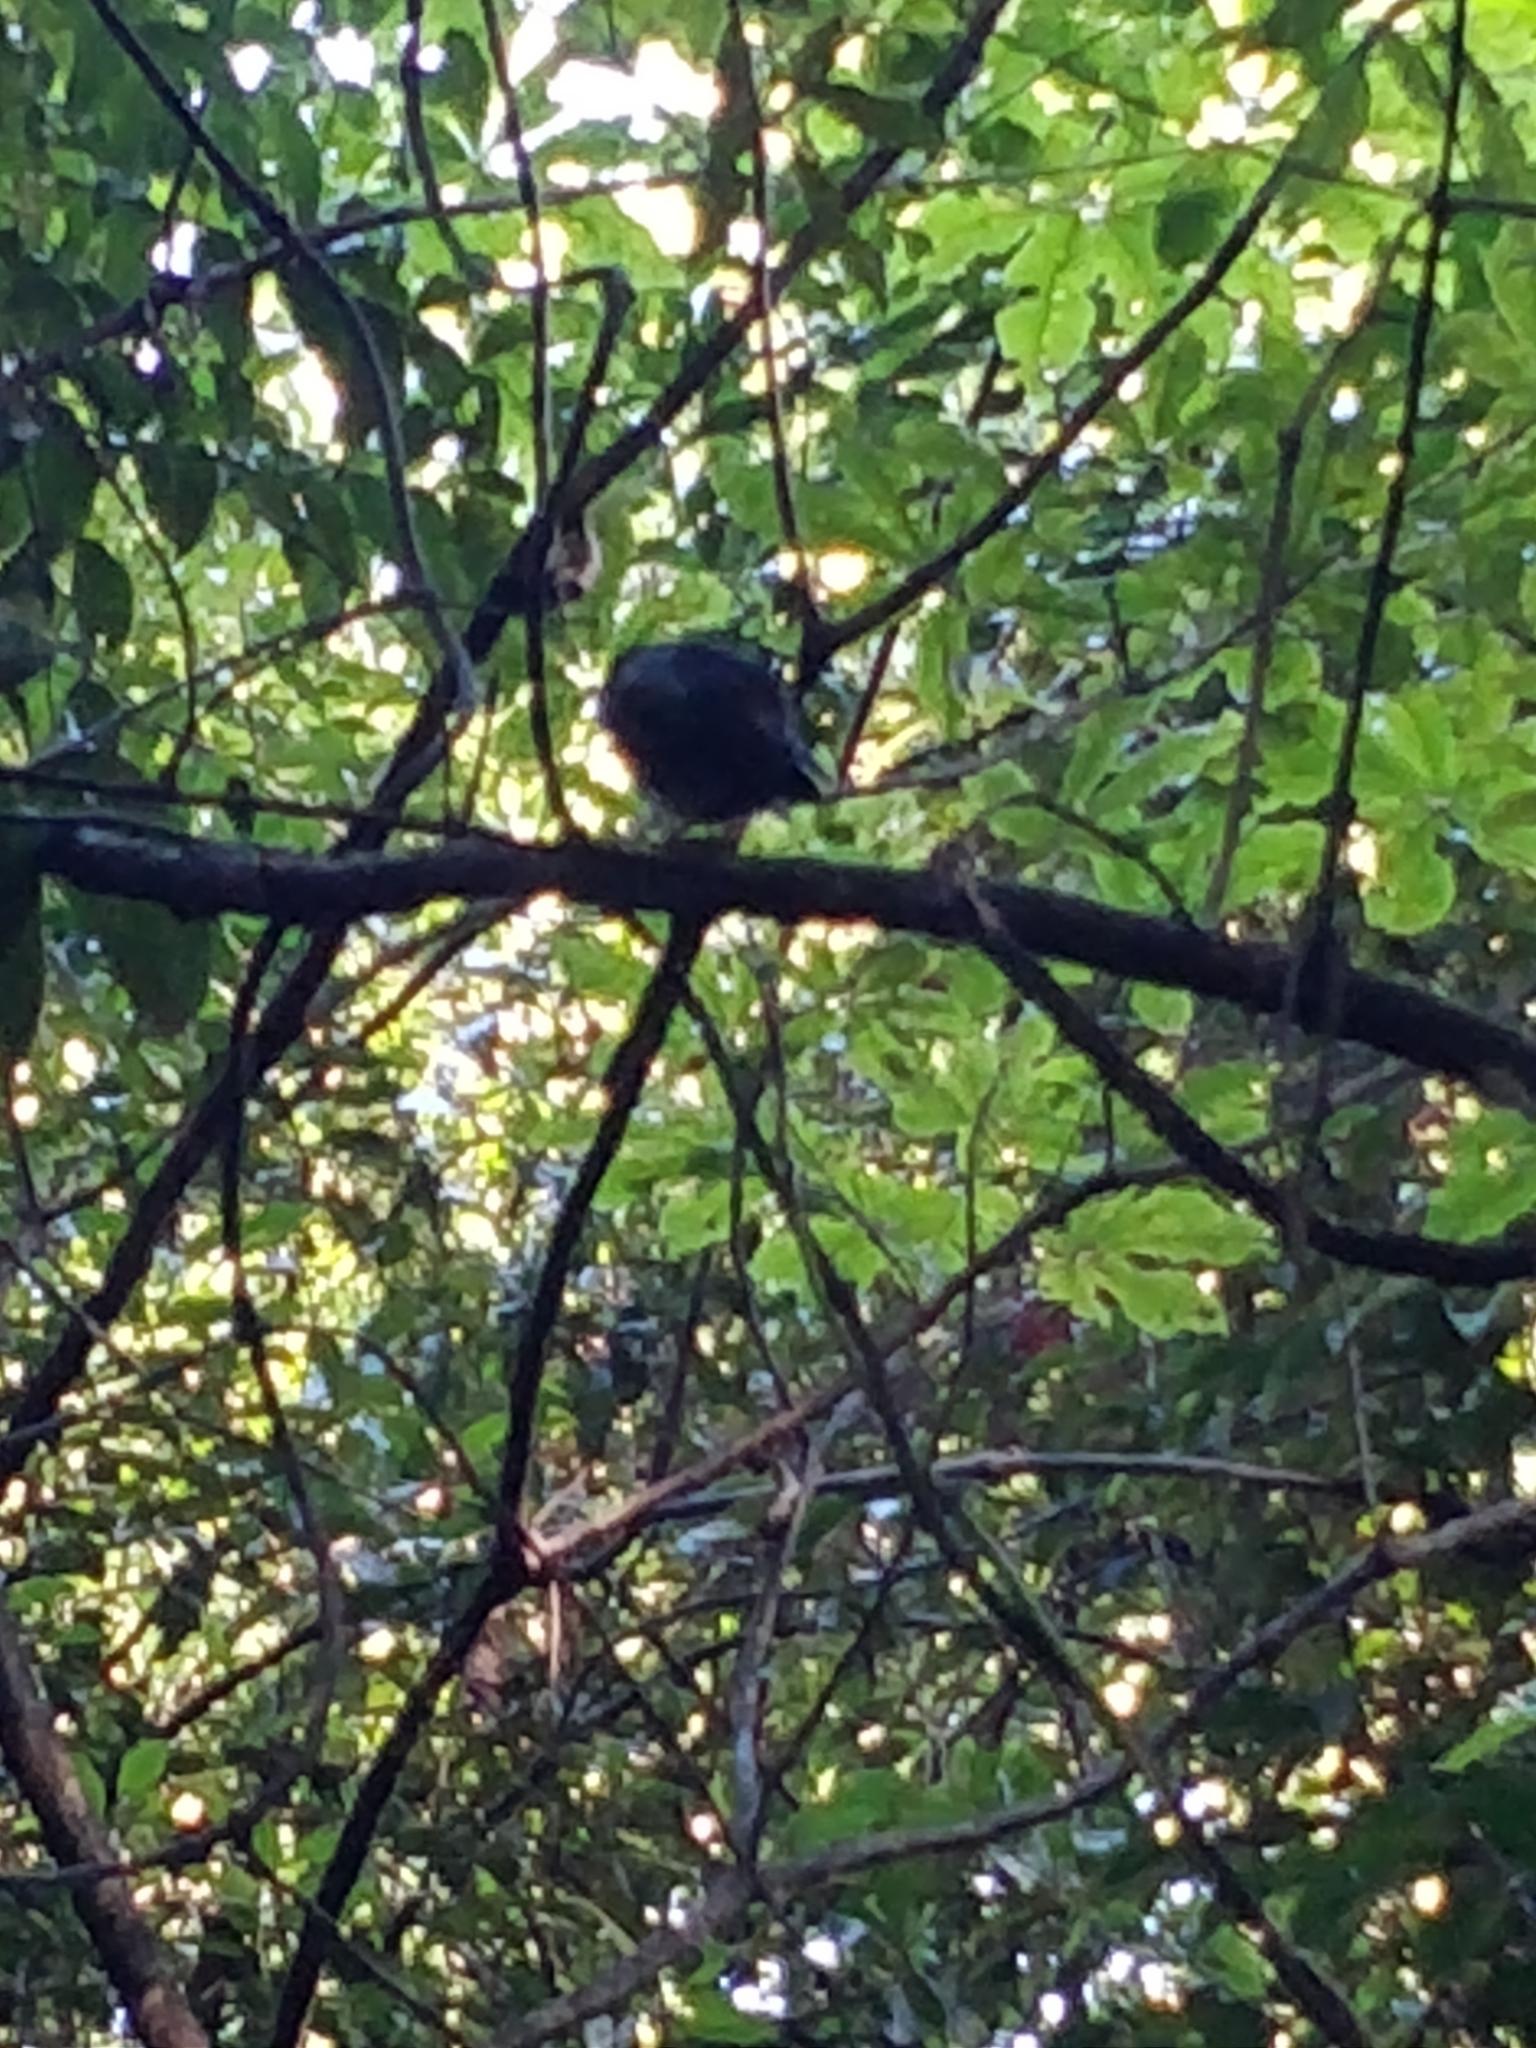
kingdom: Animalia
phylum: Chordata
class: Aves
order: Passeriformes
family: Petroicidae
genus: Petroica
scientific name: Petroica australis
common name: New zealand robin
